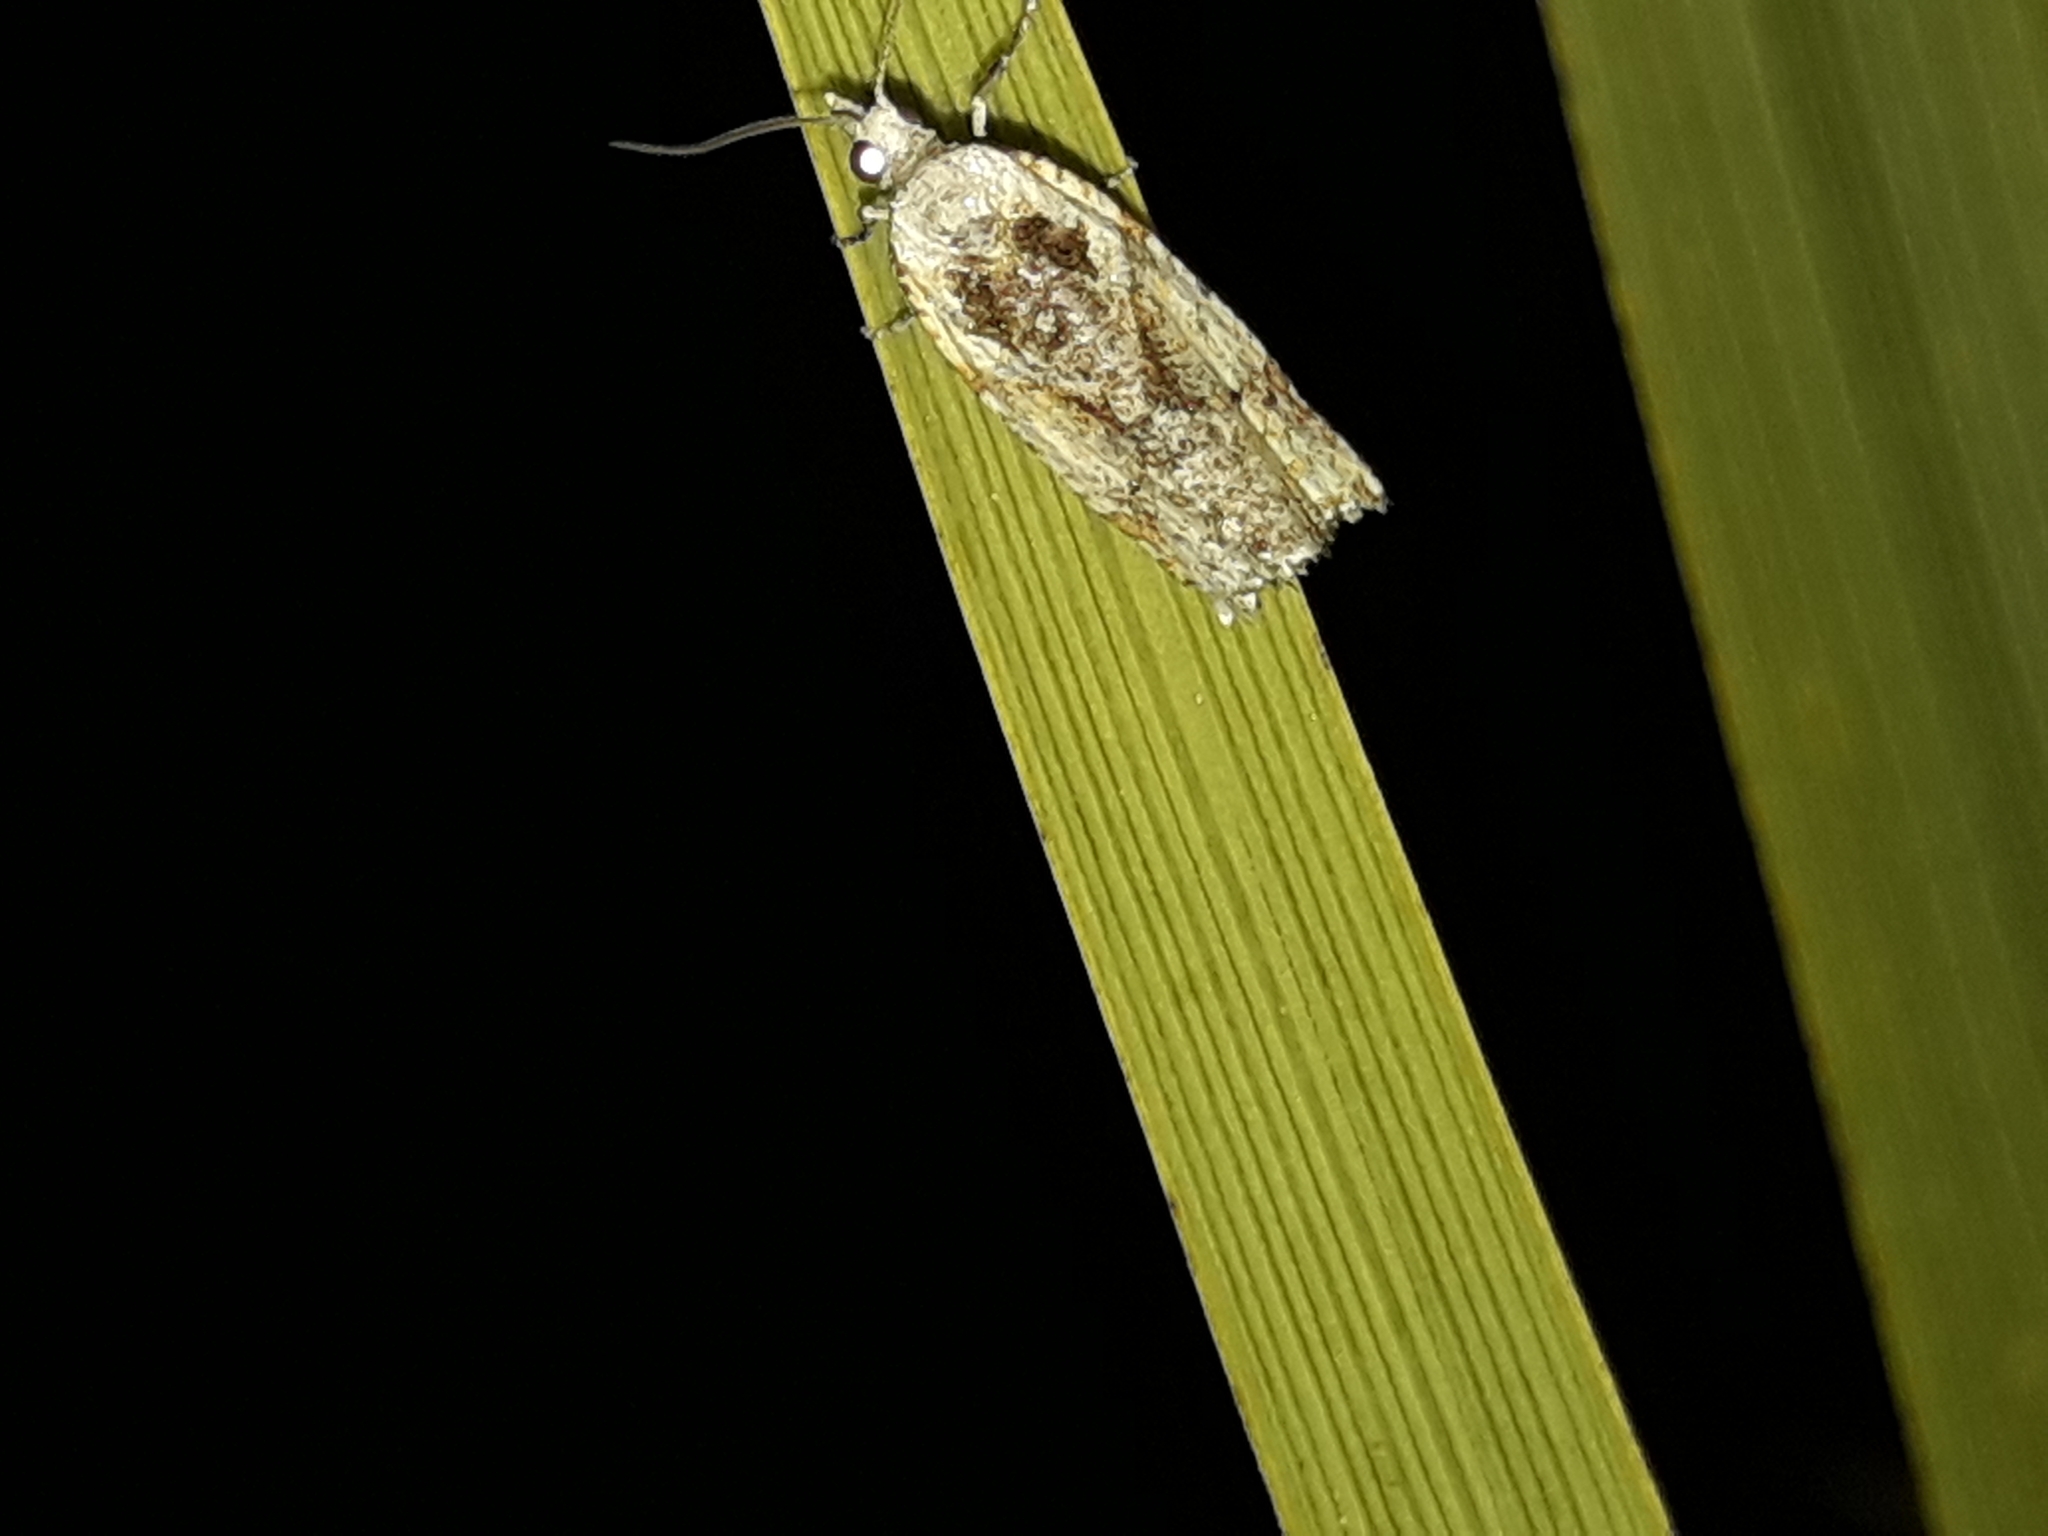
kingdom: Animalia
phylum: Arthropoda
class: Insecta
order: Lepidoptera
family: Tortricidae
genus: Pyrgotis
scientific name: Pyrgotis plagiatana
